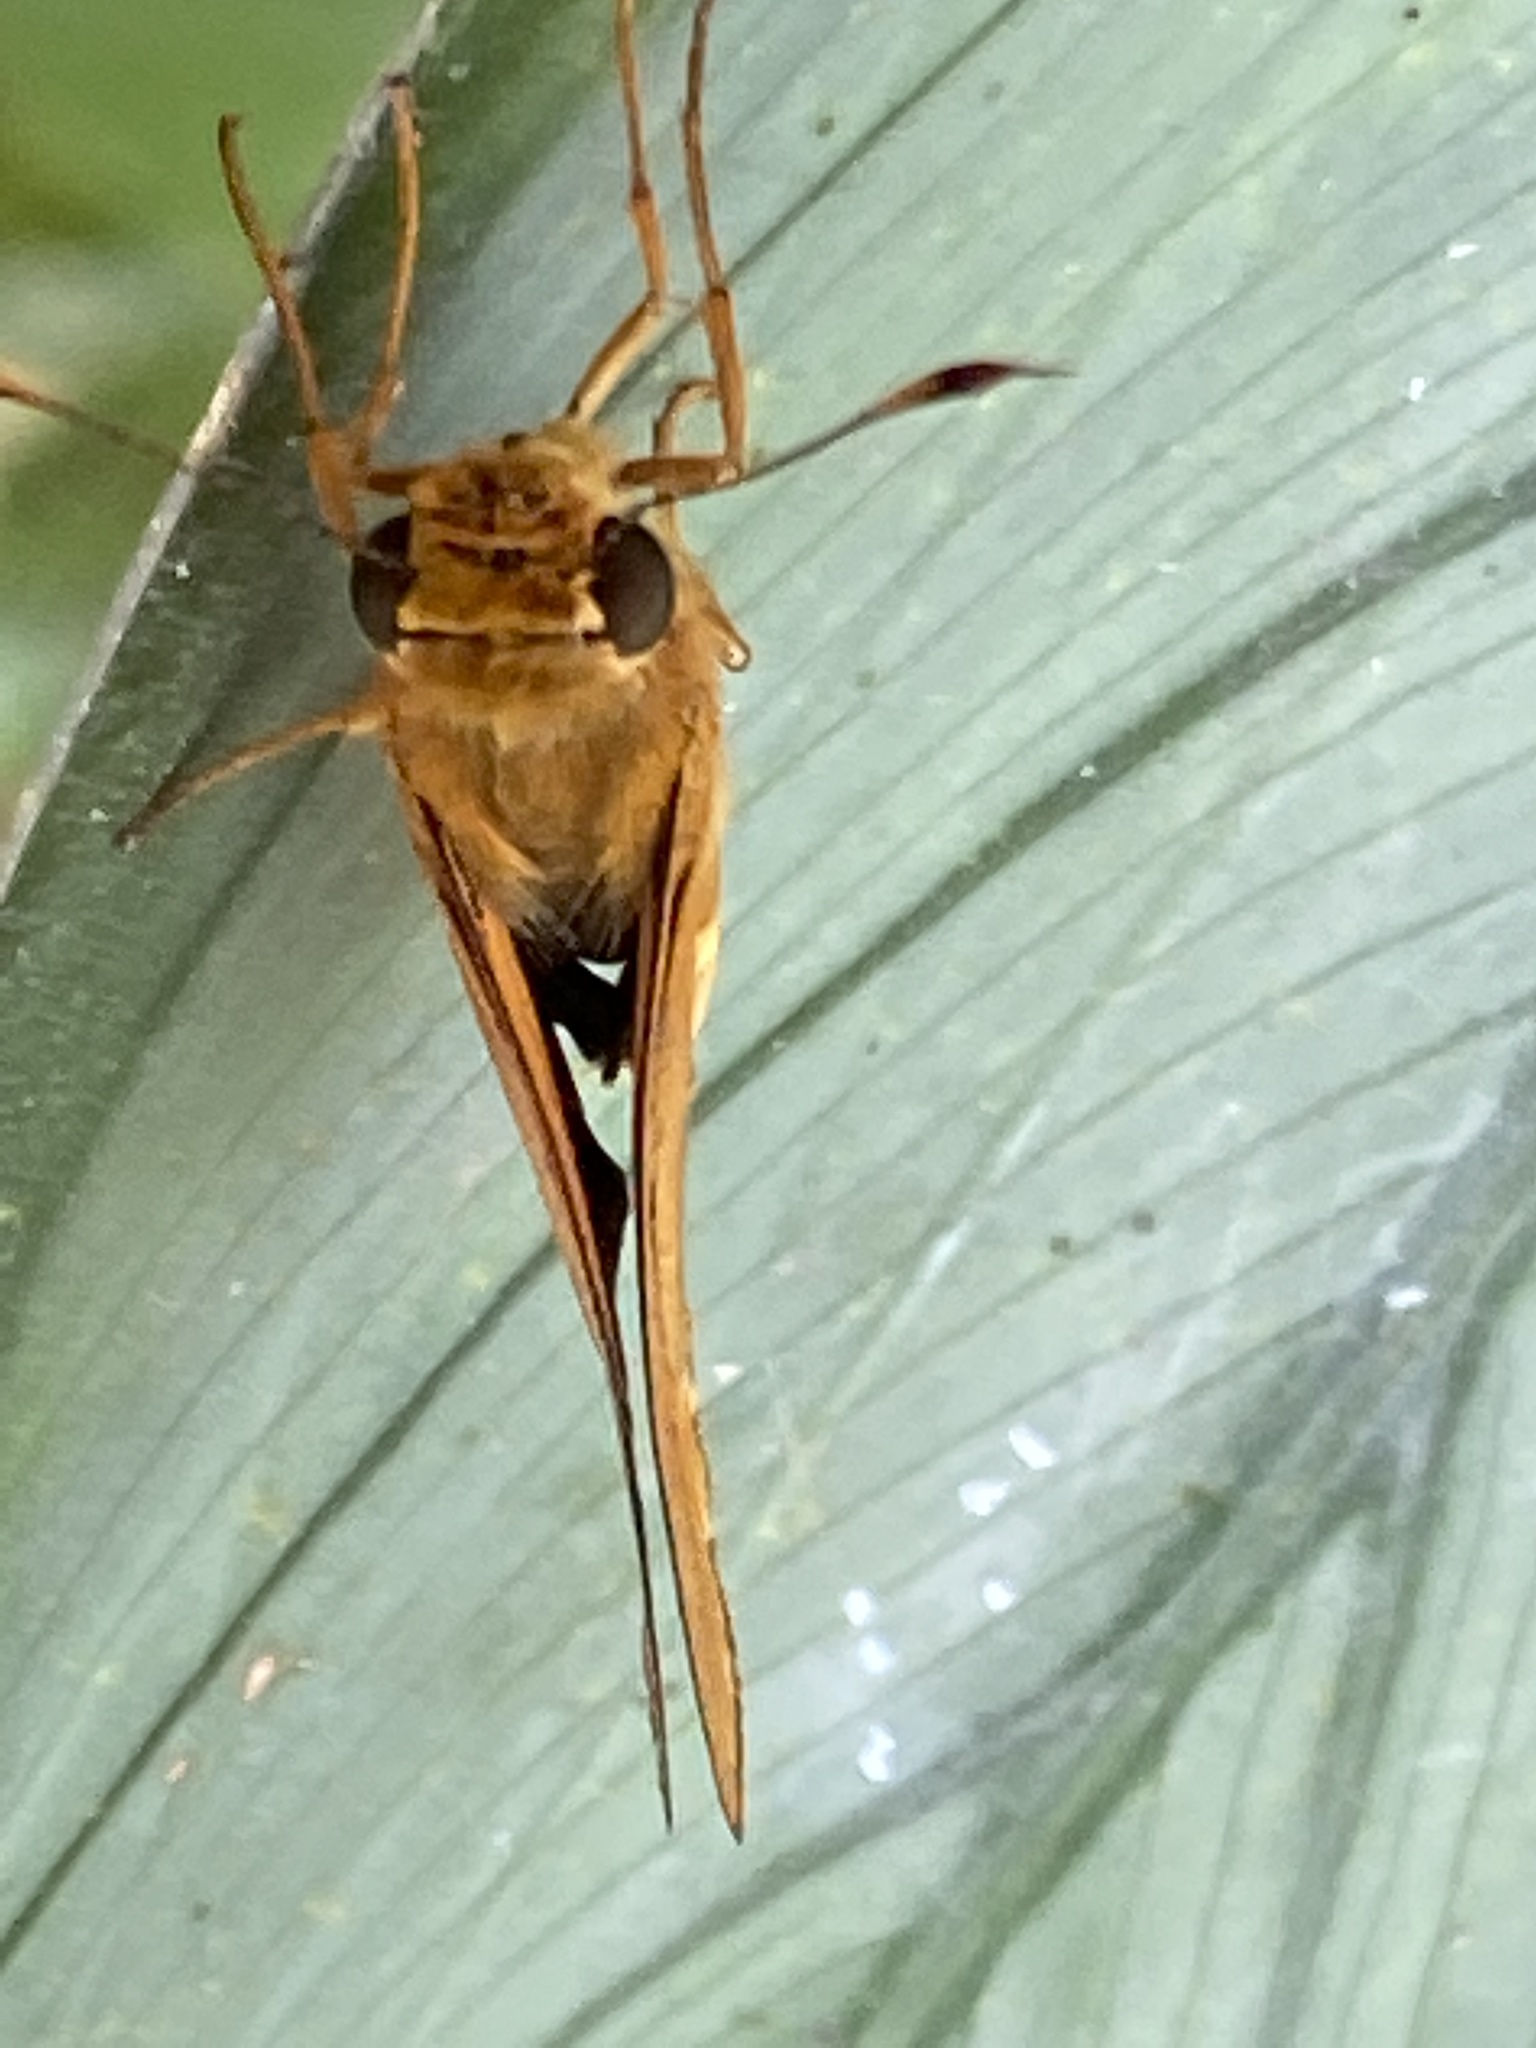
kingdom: Animalia
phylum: Arthropoda
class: Insecta
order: Lepidoptera
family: Hesperiidae
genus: Cephrenes
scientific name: Cephrenes augiades
